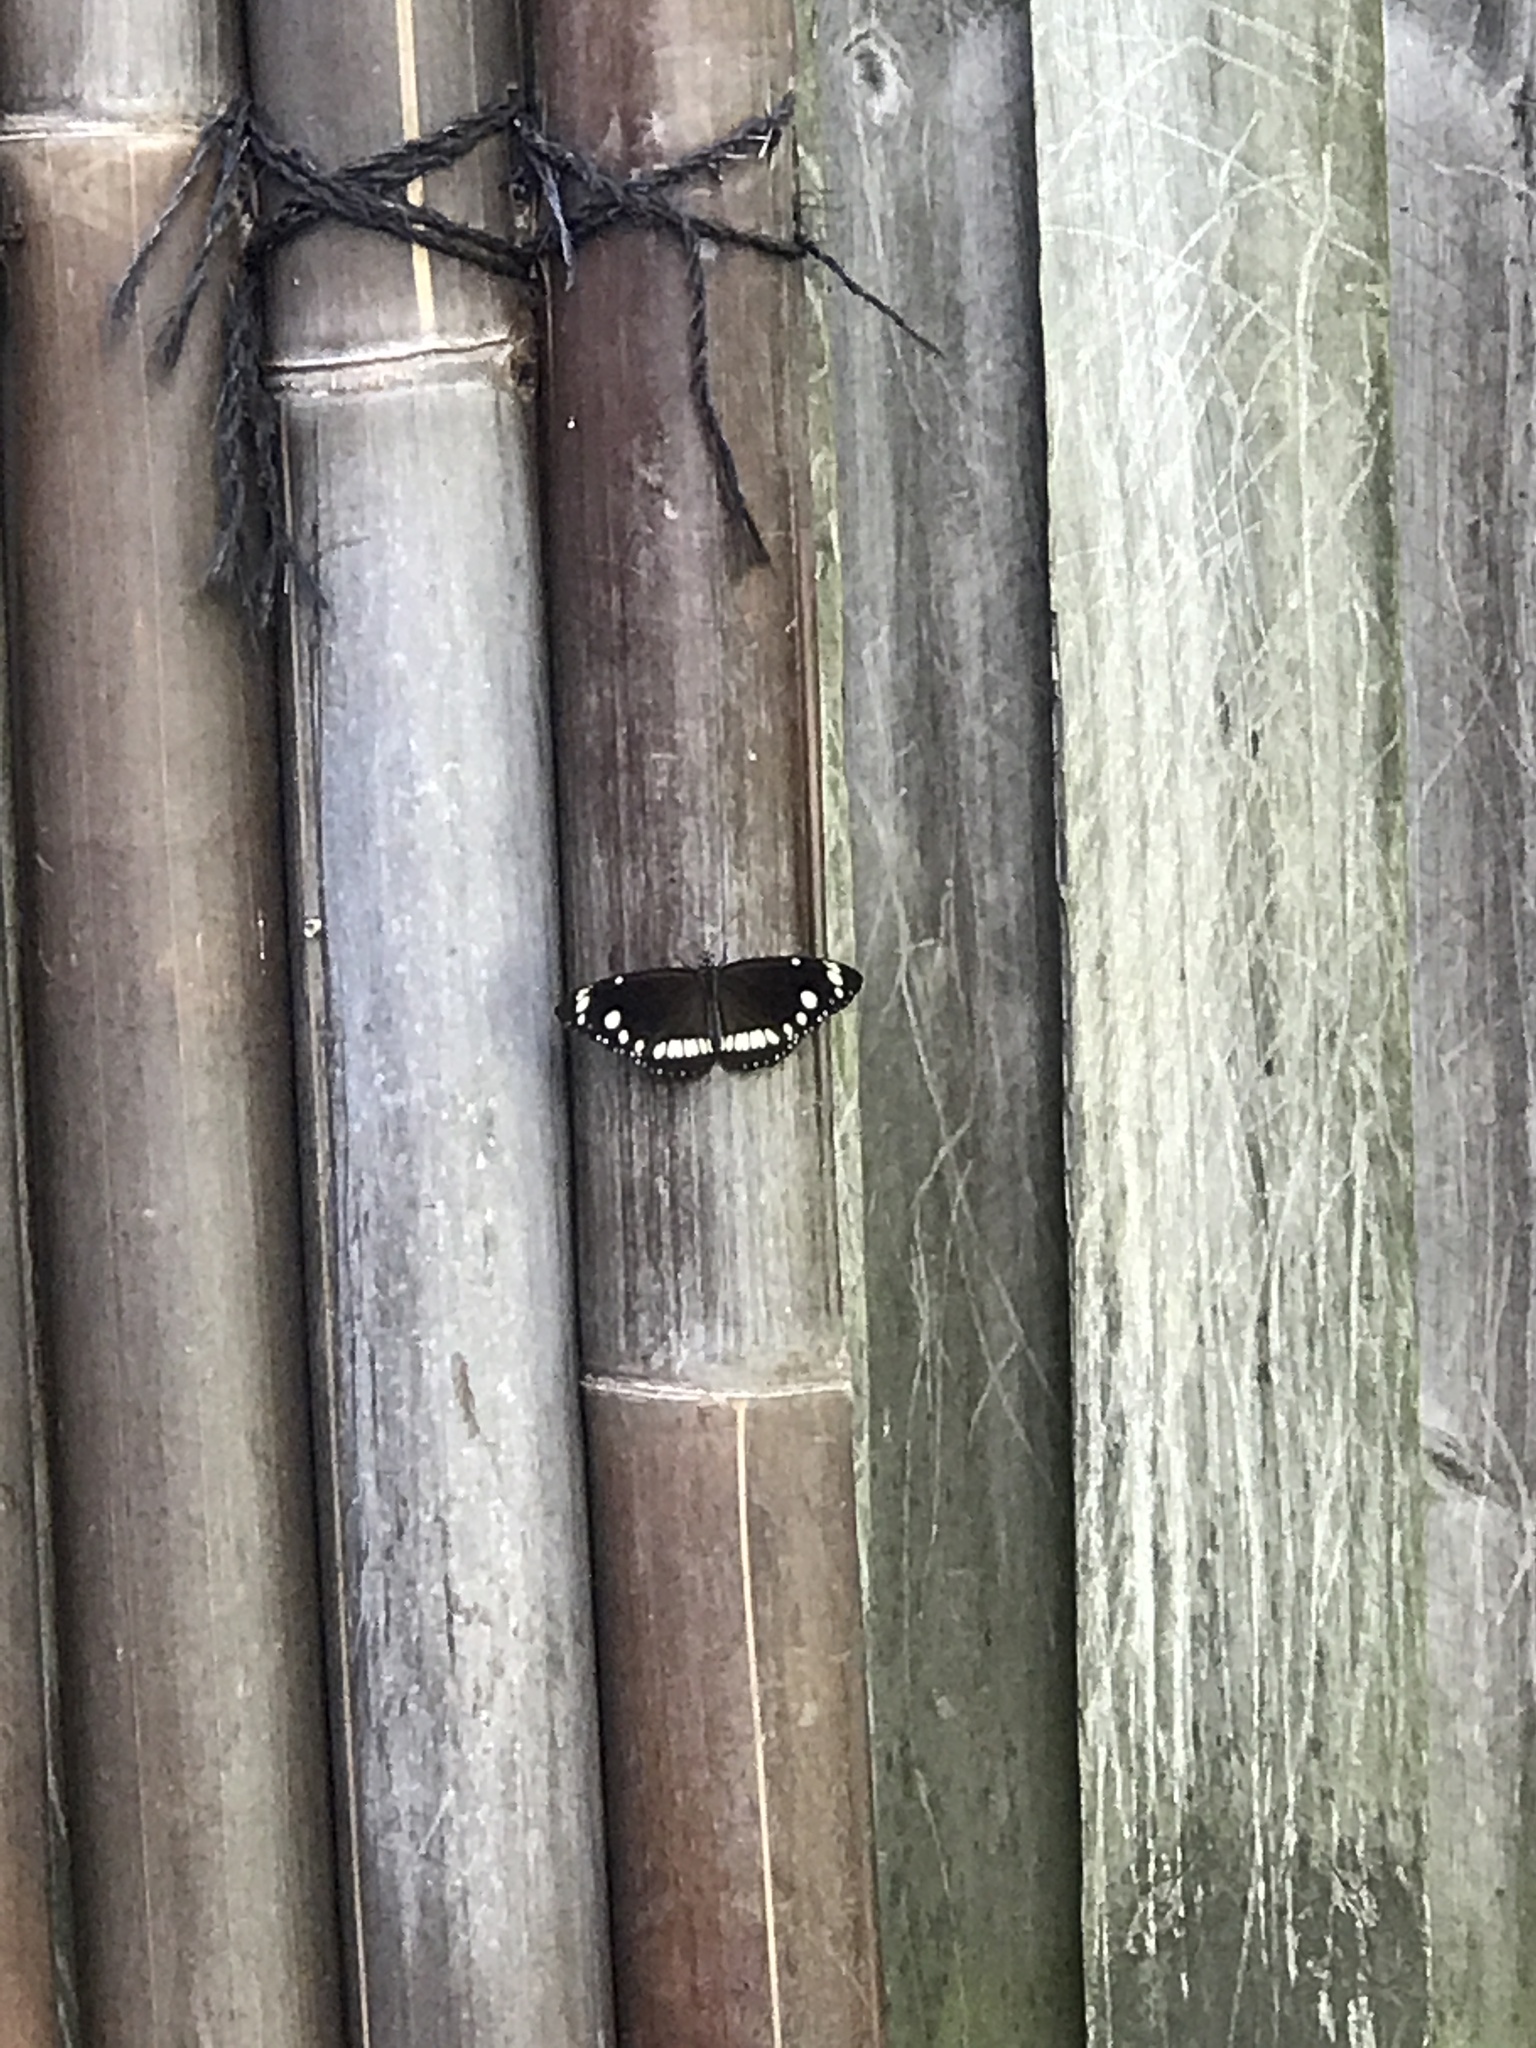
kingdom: Animalia
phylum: Arthropoda
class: Insecta
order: Lepidoptera
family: Nymphalidae
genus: Euploea
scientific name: Euploea core
